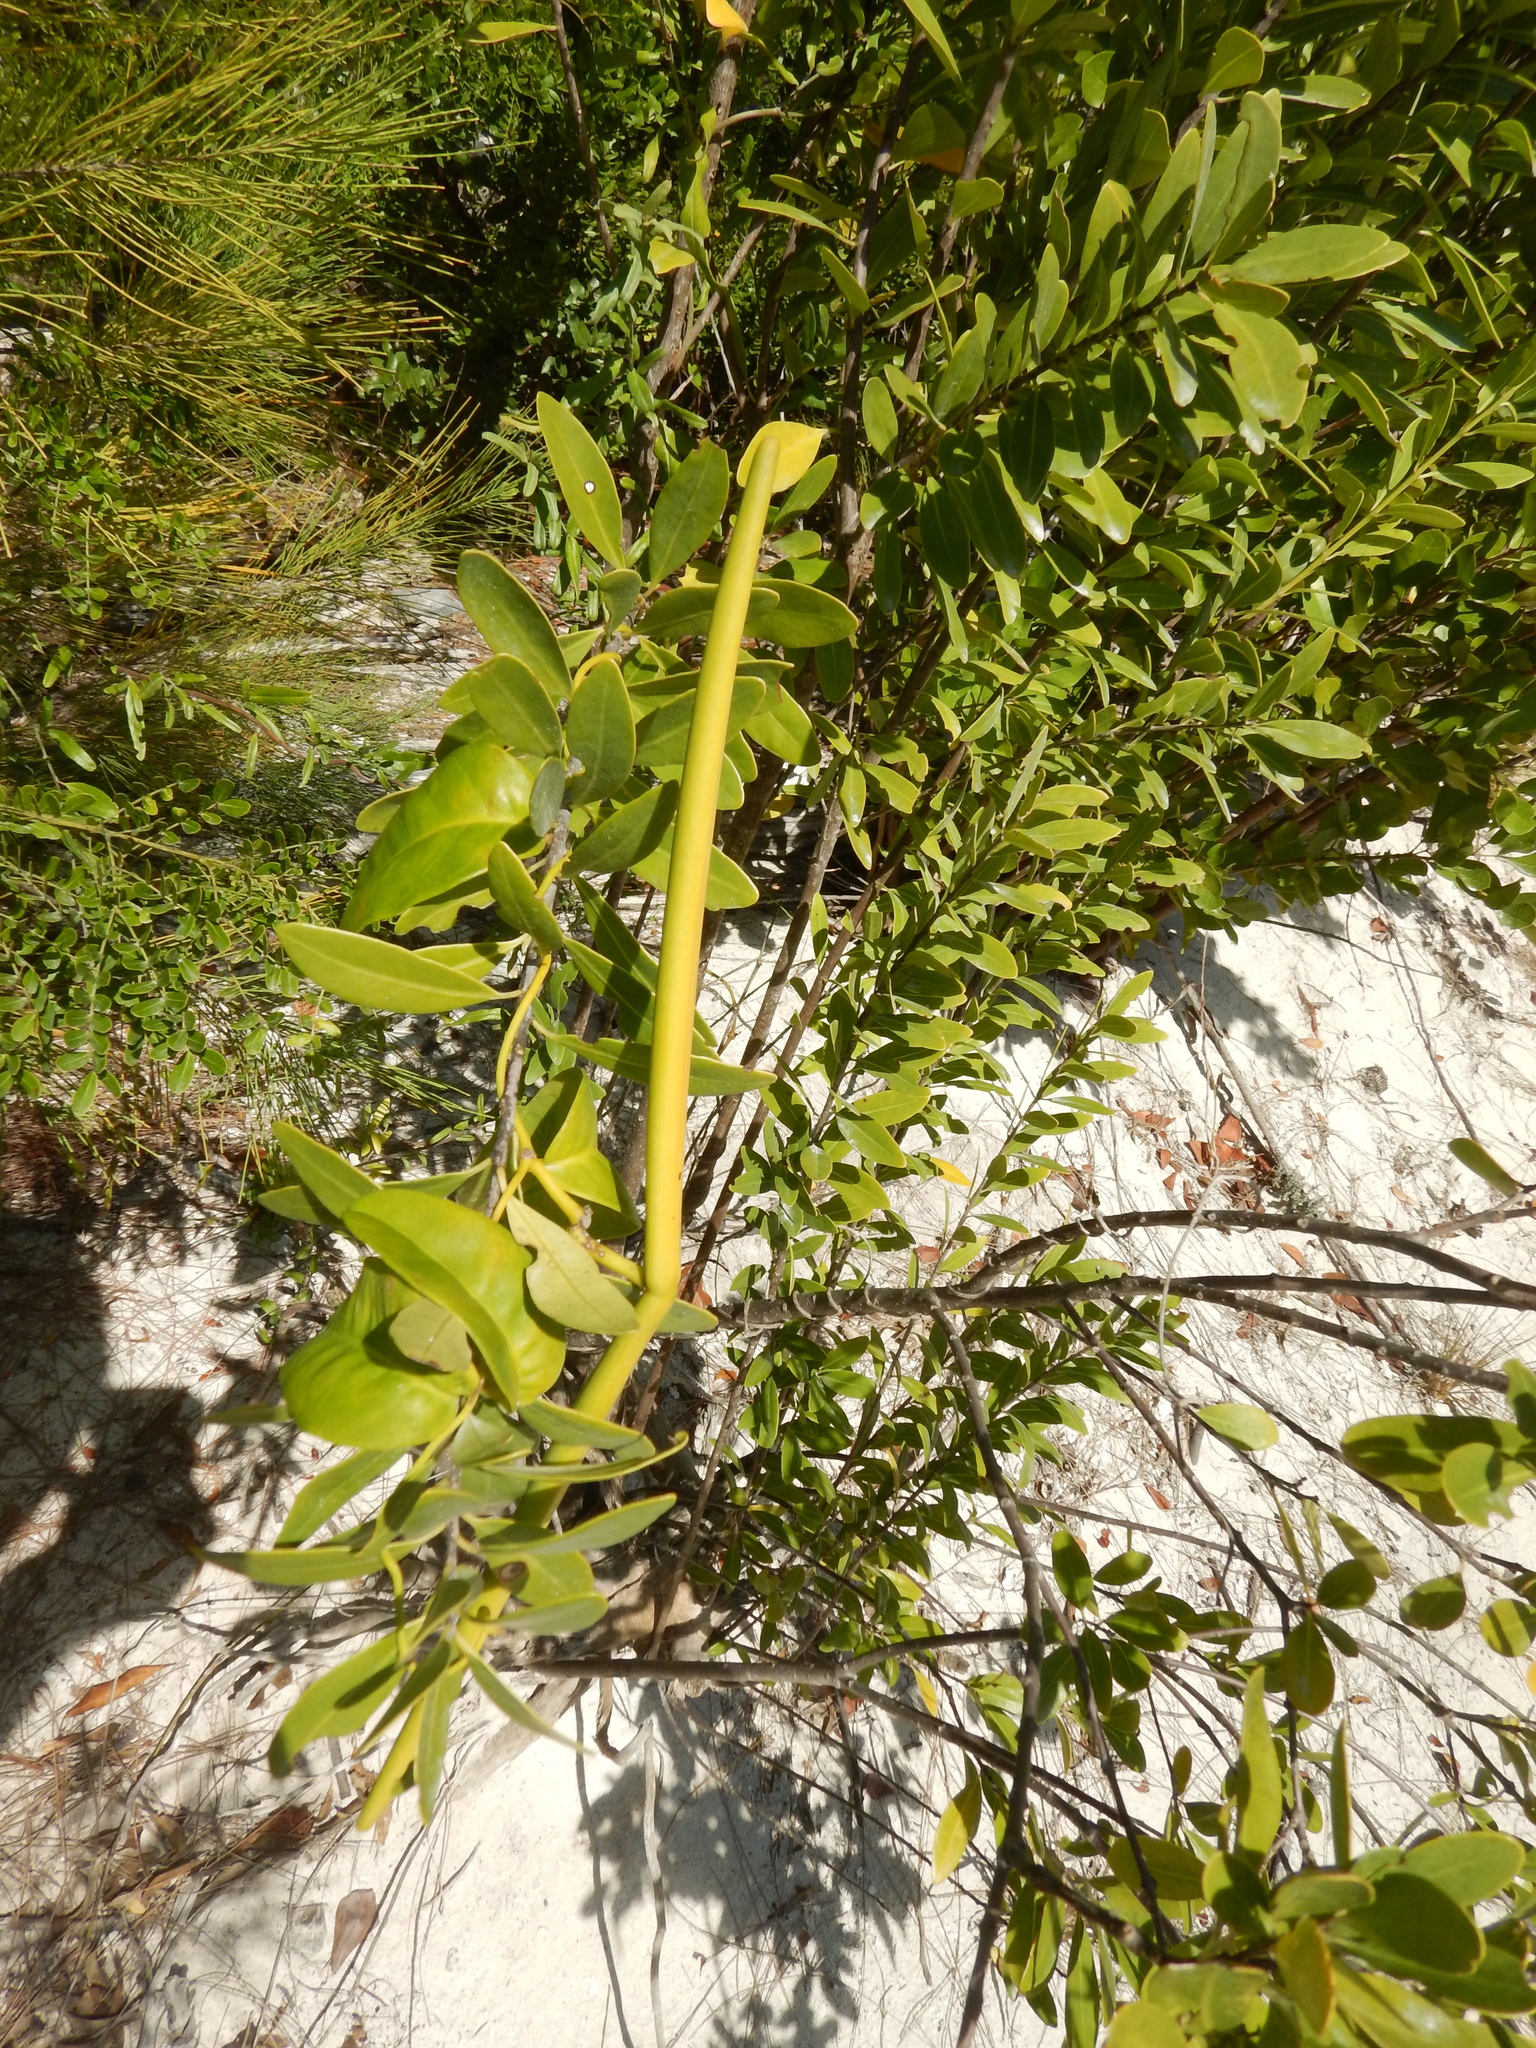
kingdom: Plantae
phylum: Tracheophyta
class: Magnoliopsida
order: Gentianales
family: Apocynaceae
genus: Echites
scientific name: Echites umbellatus
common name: Devil's potato
